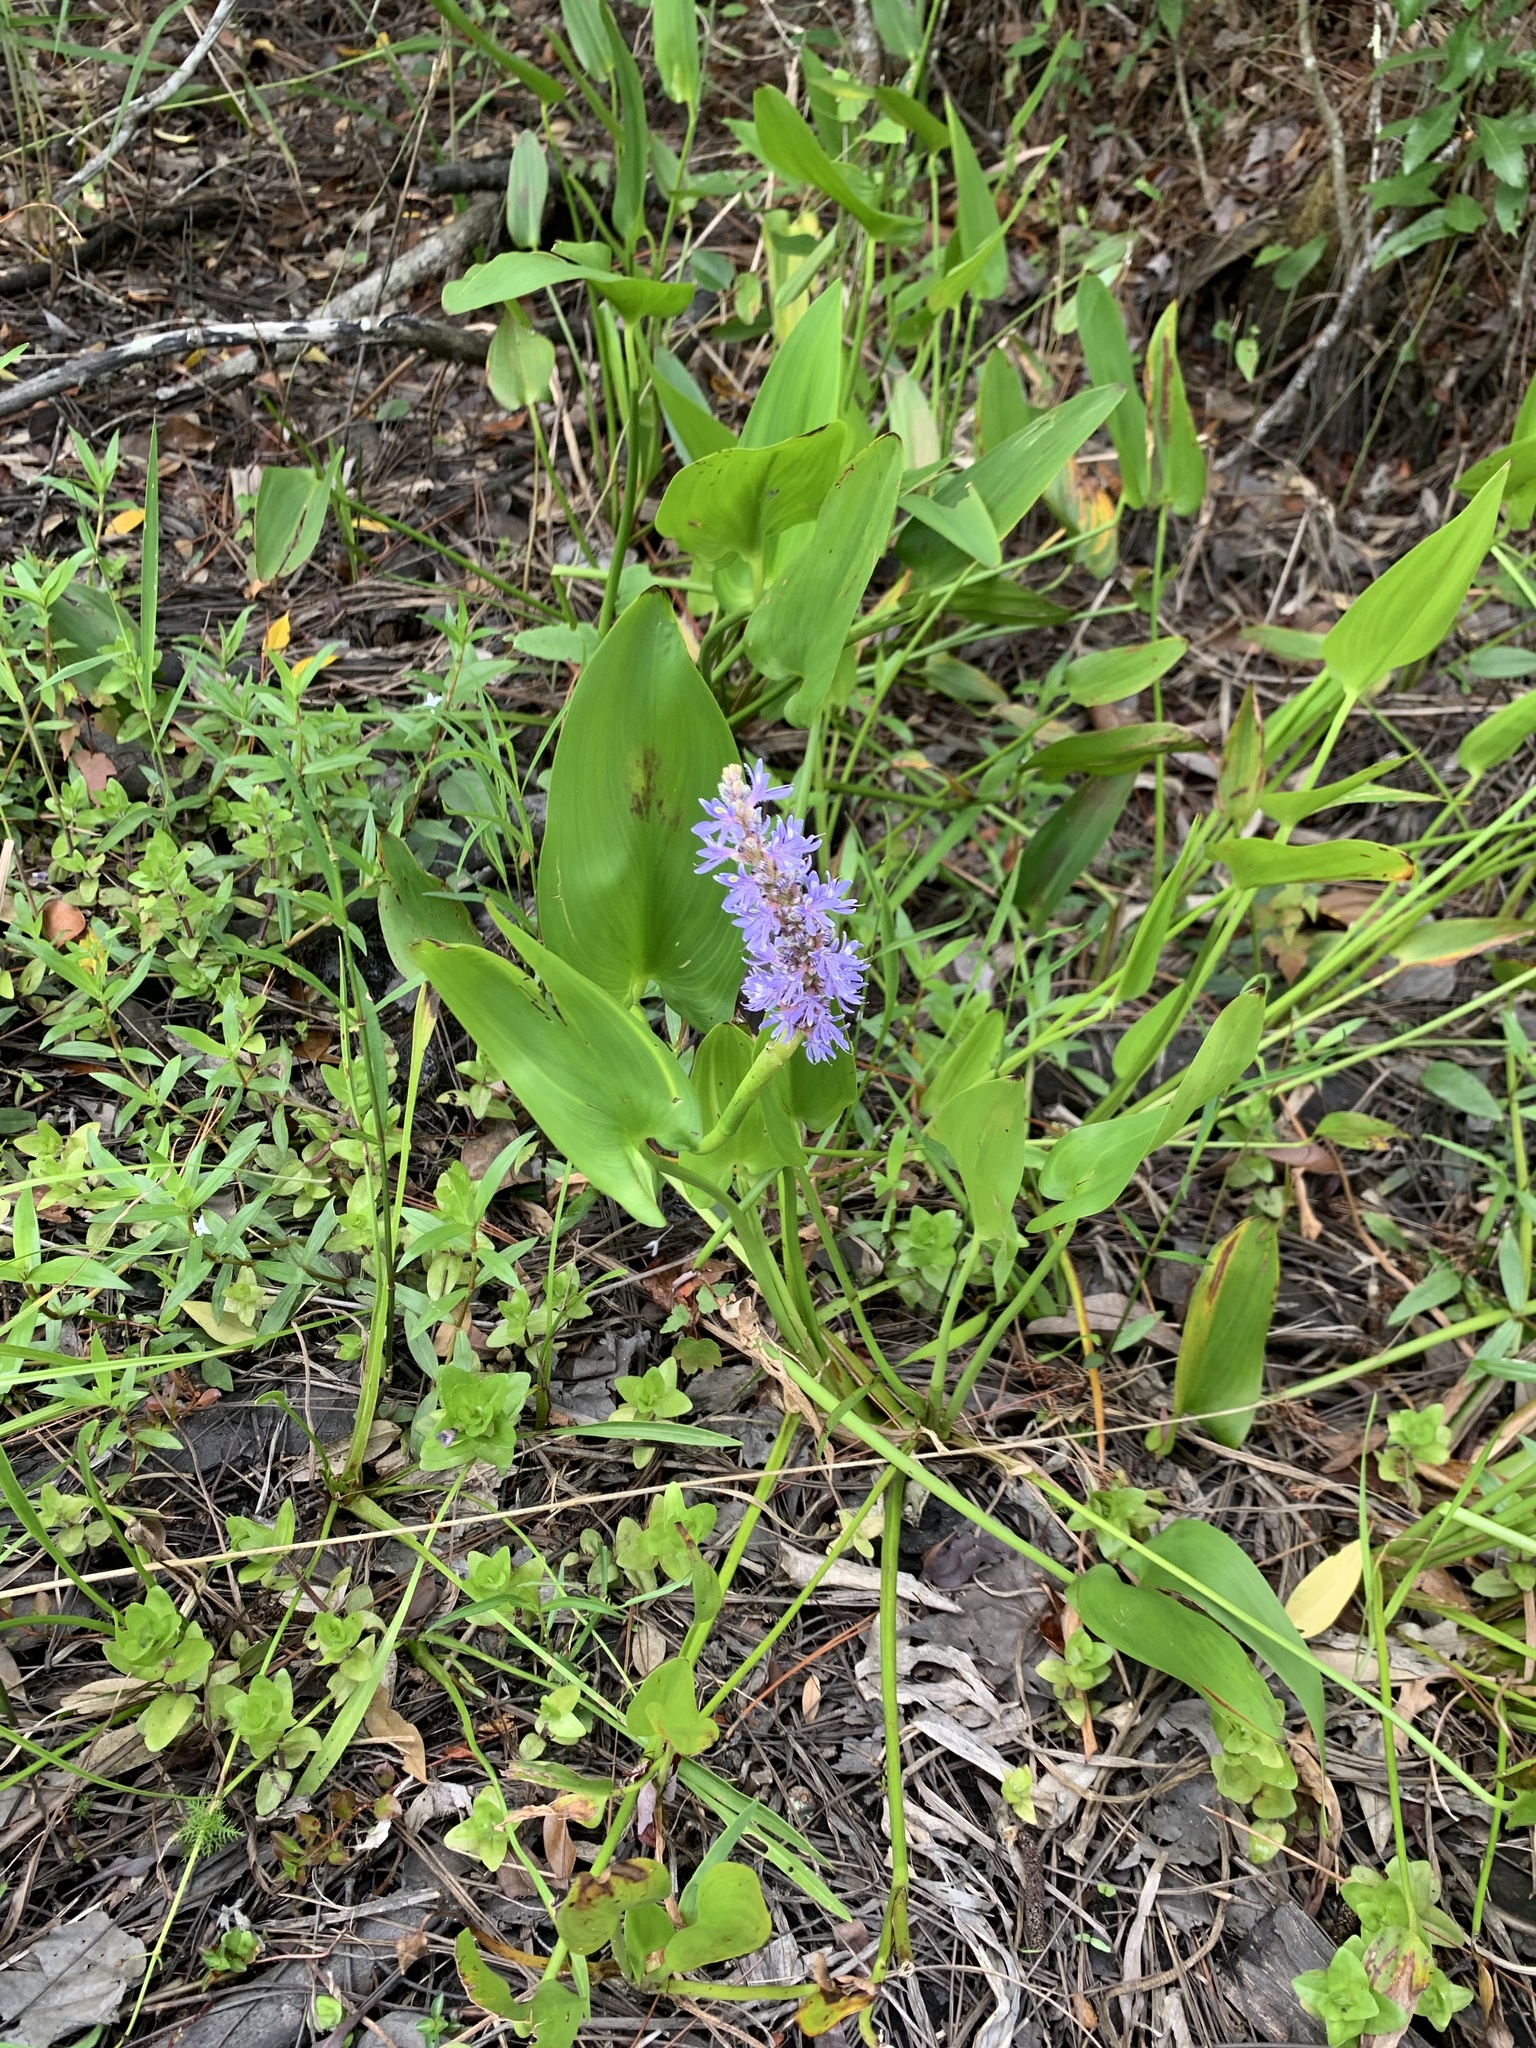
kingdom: Plantae
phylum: Tracheophyta
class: Liliopsida
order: Commelinales
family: Pontederiaceae
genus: Pontederia
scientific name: Pontederia cordata
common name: Pickerelweed
